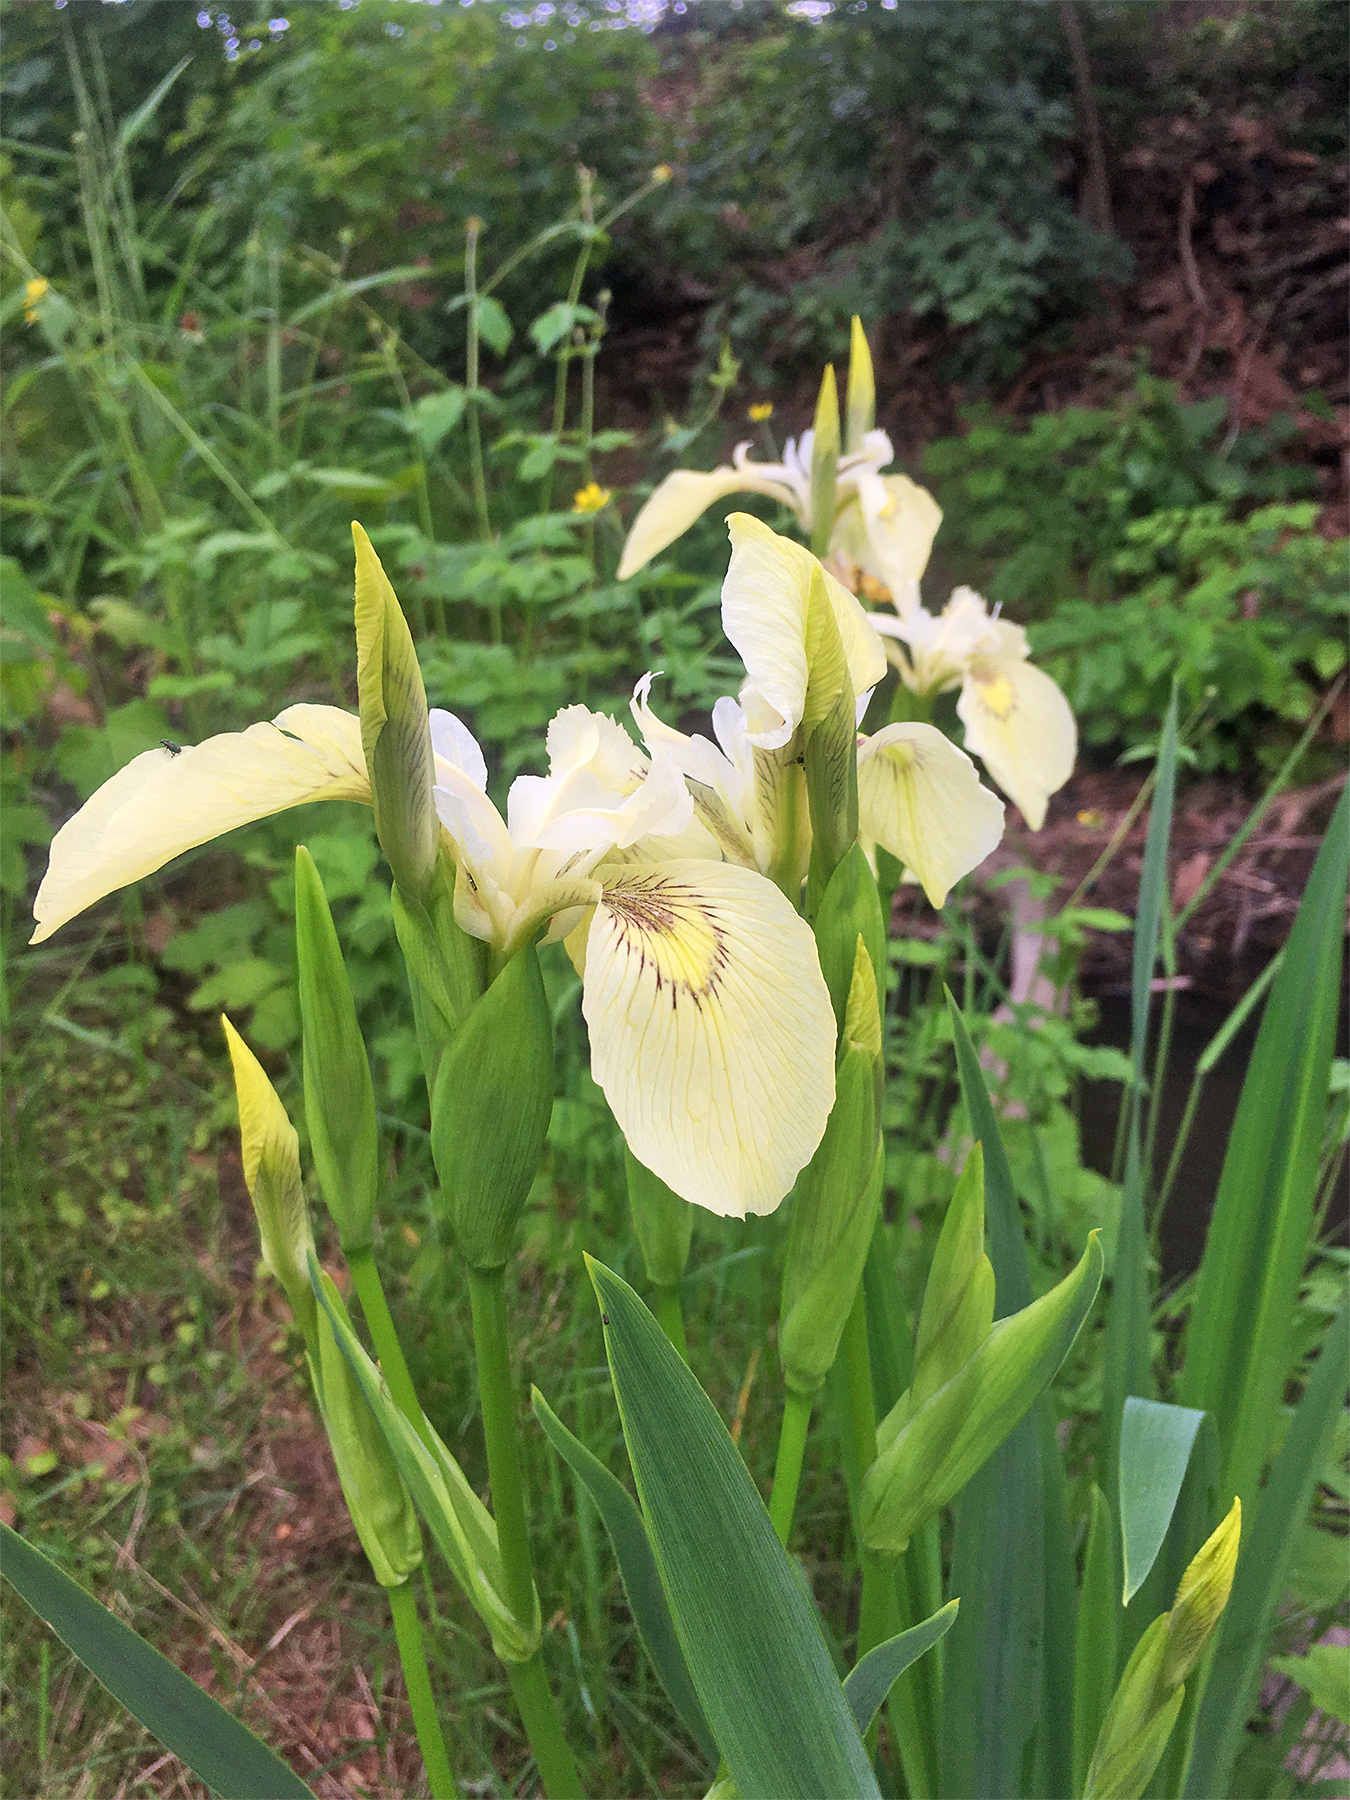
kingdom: Plantae
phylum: Tracheophyta
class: Liliopsida
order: Asparagales
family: Iridaceae
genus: Iris
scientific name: Iris pseudacorus
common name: Yellow flag
